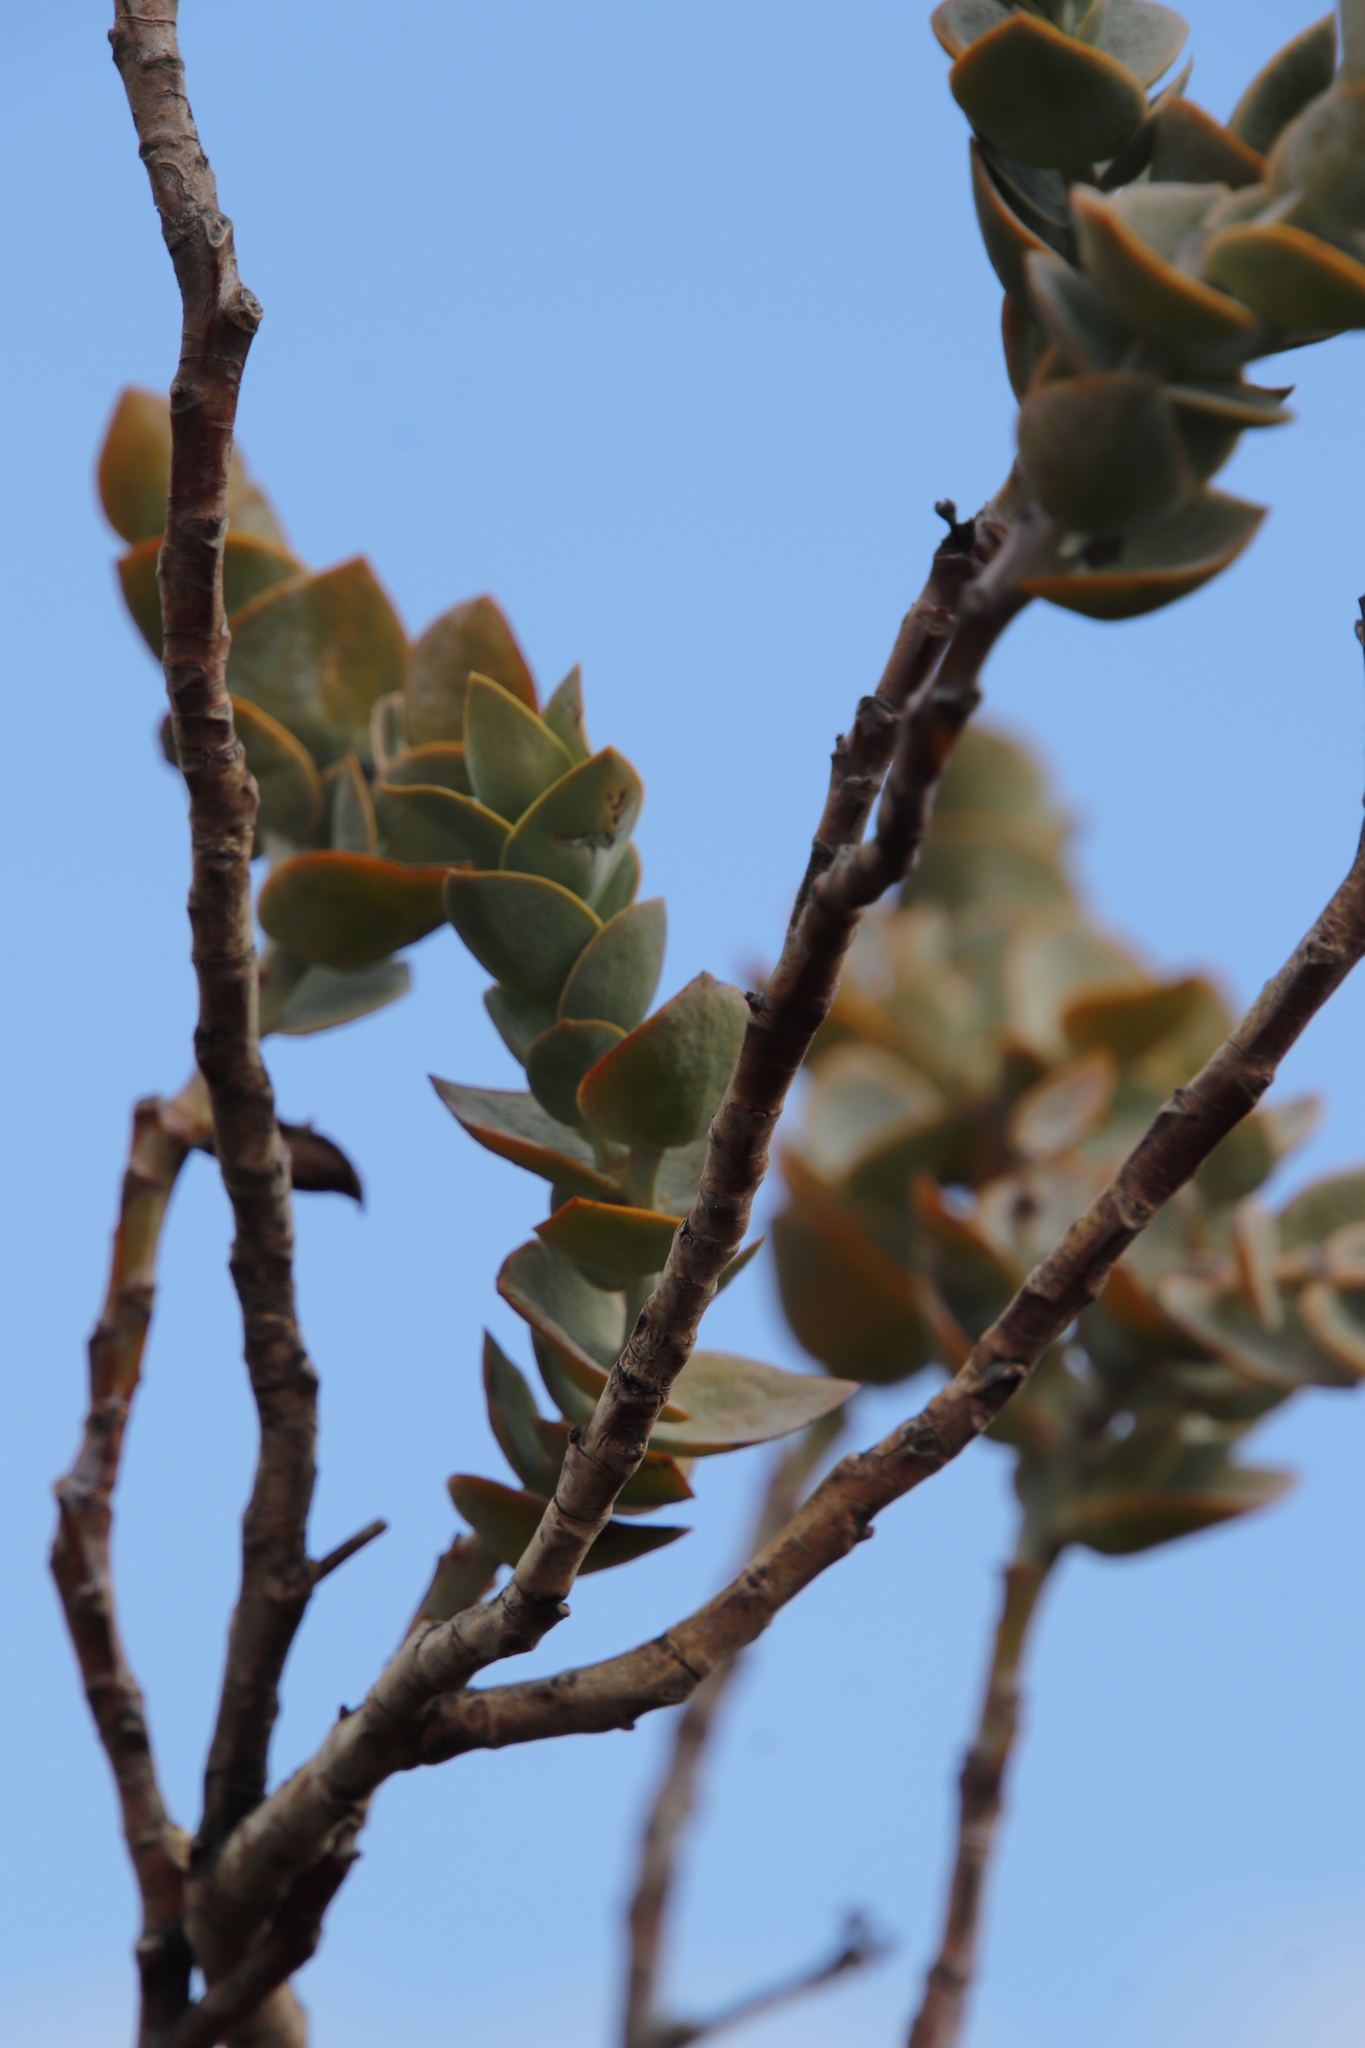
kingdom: Plantae
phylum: Tracheophyta
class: Magnoliopsida
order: Santalales
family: Thesiaceae
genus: Thesium
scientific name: Thesium euphorbioides
